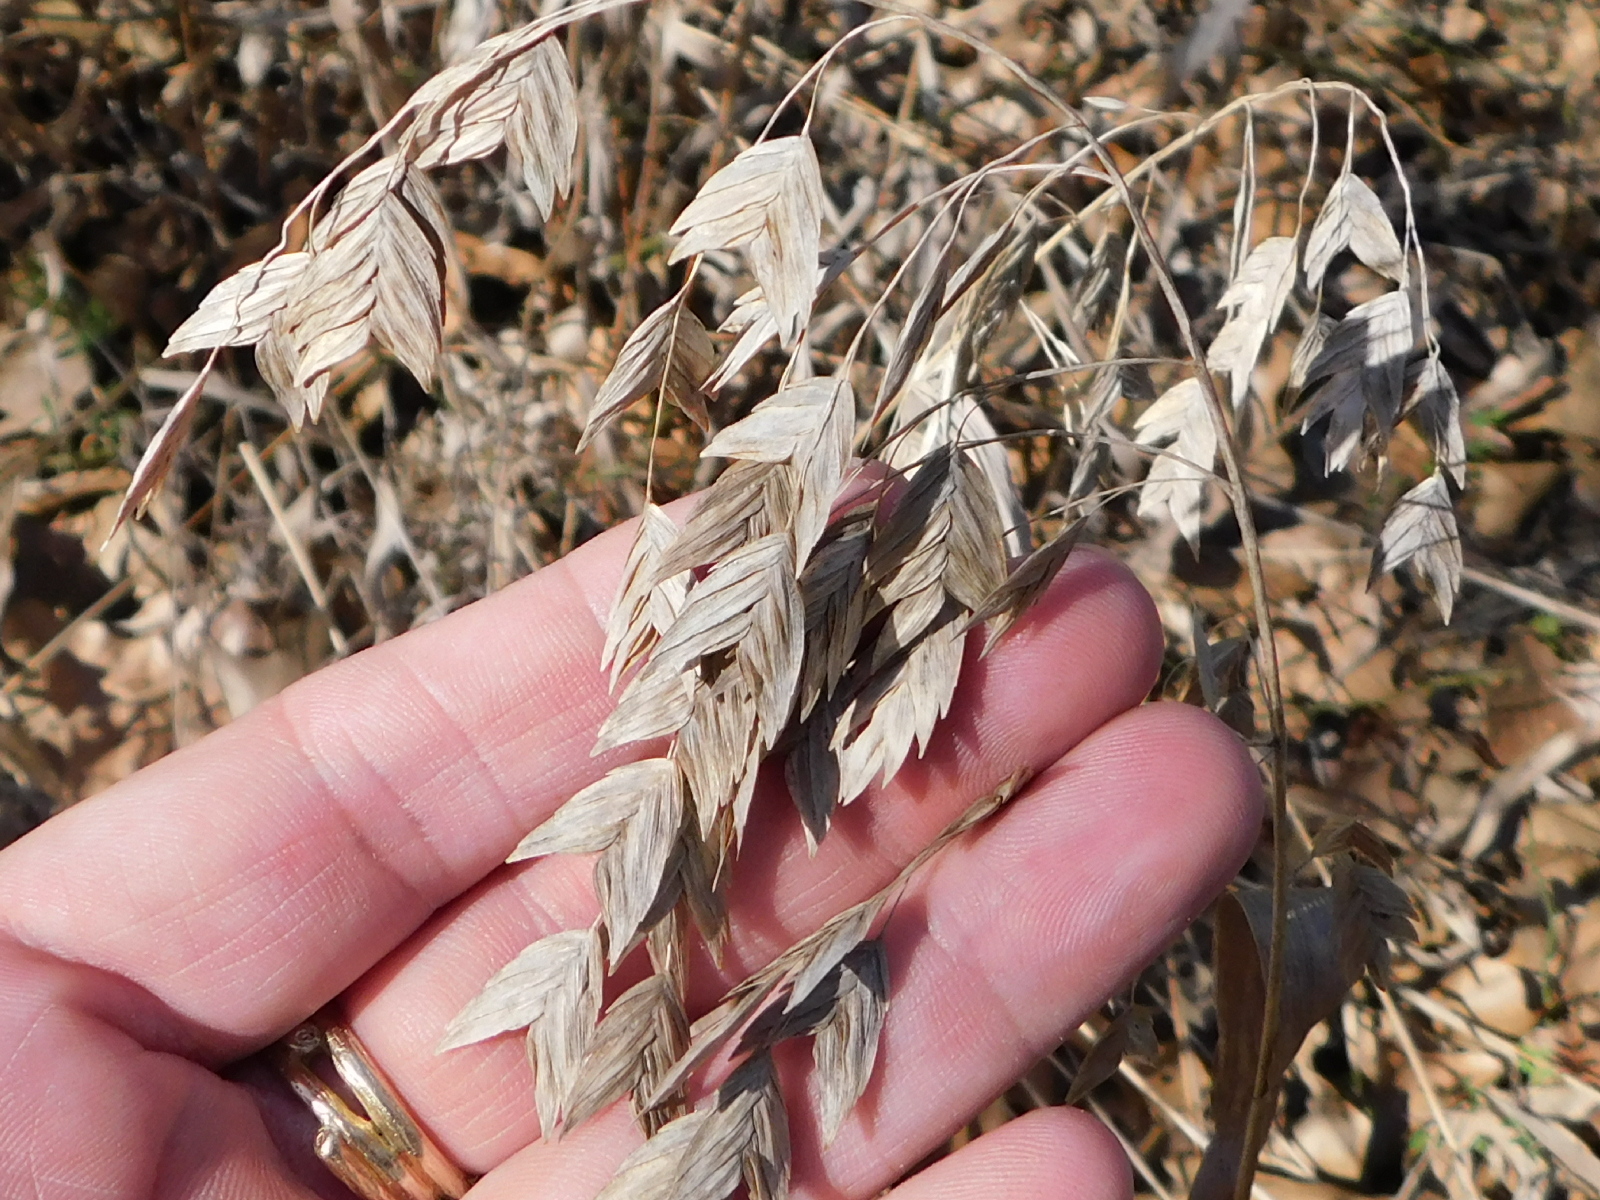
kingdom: Plantae
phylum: Tracheophyta
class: Liliopsida
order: Poales
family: Poaceae
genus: Chasmanthium
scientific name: Chasmanthium latifolium
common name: Broad-leaved chasmanthium
